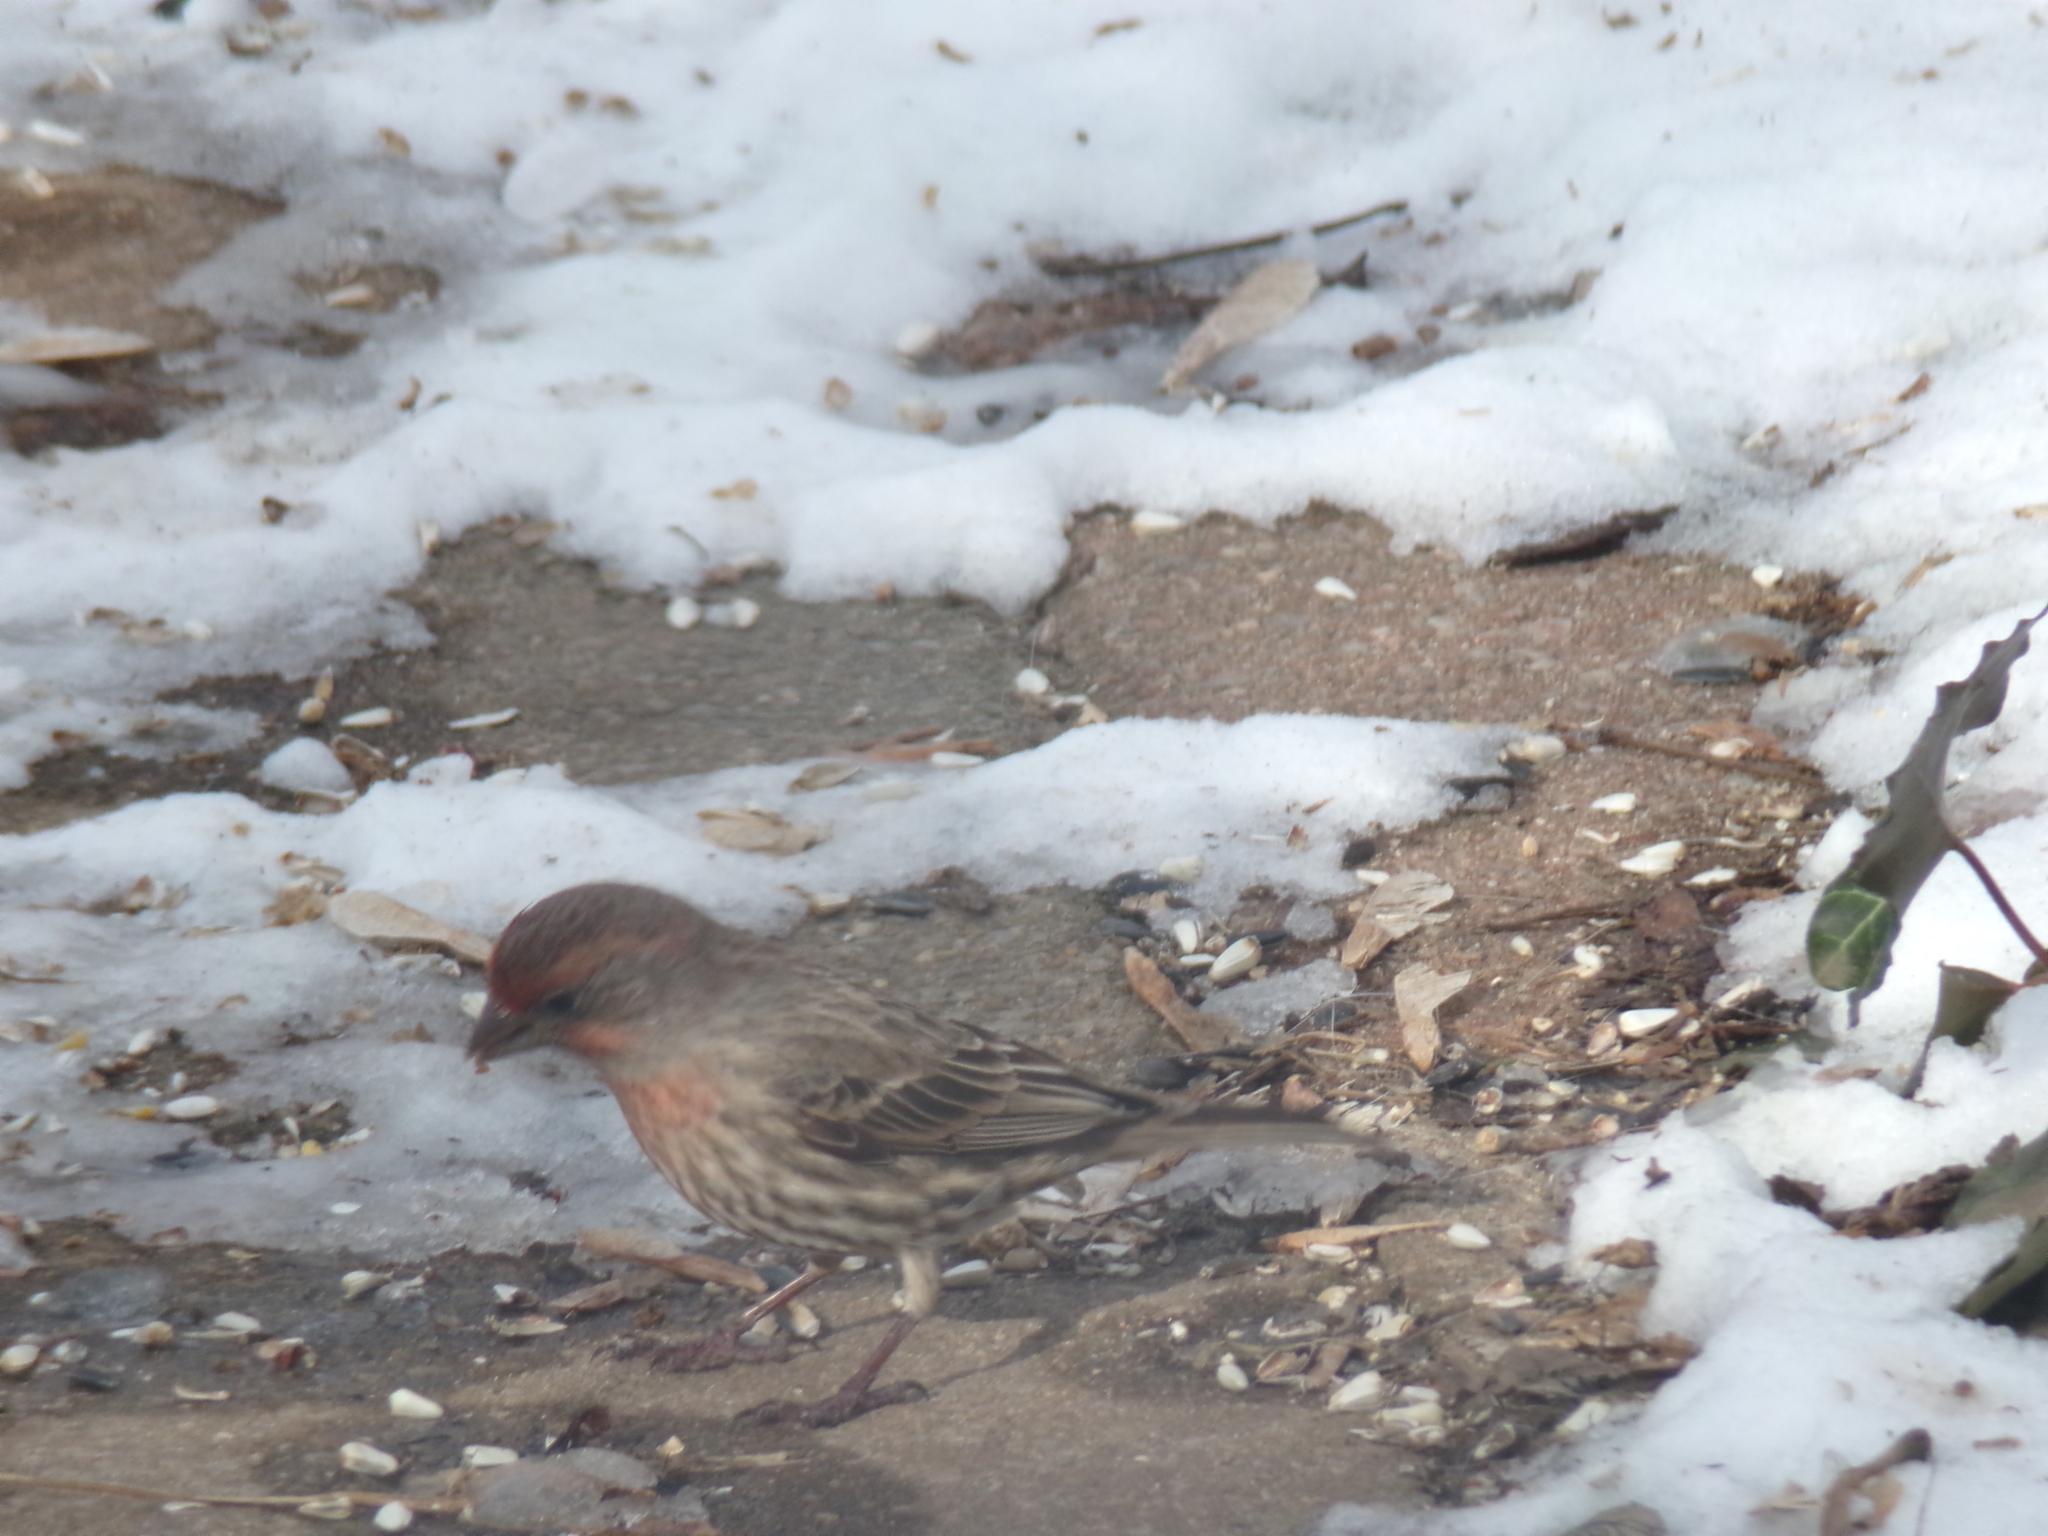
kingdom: Animalia
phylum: Chordata
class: Aves
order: Passeriformes
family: Fringillidae
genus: Haemorhous
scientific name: Haemorhous mexicanus
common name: House finch
